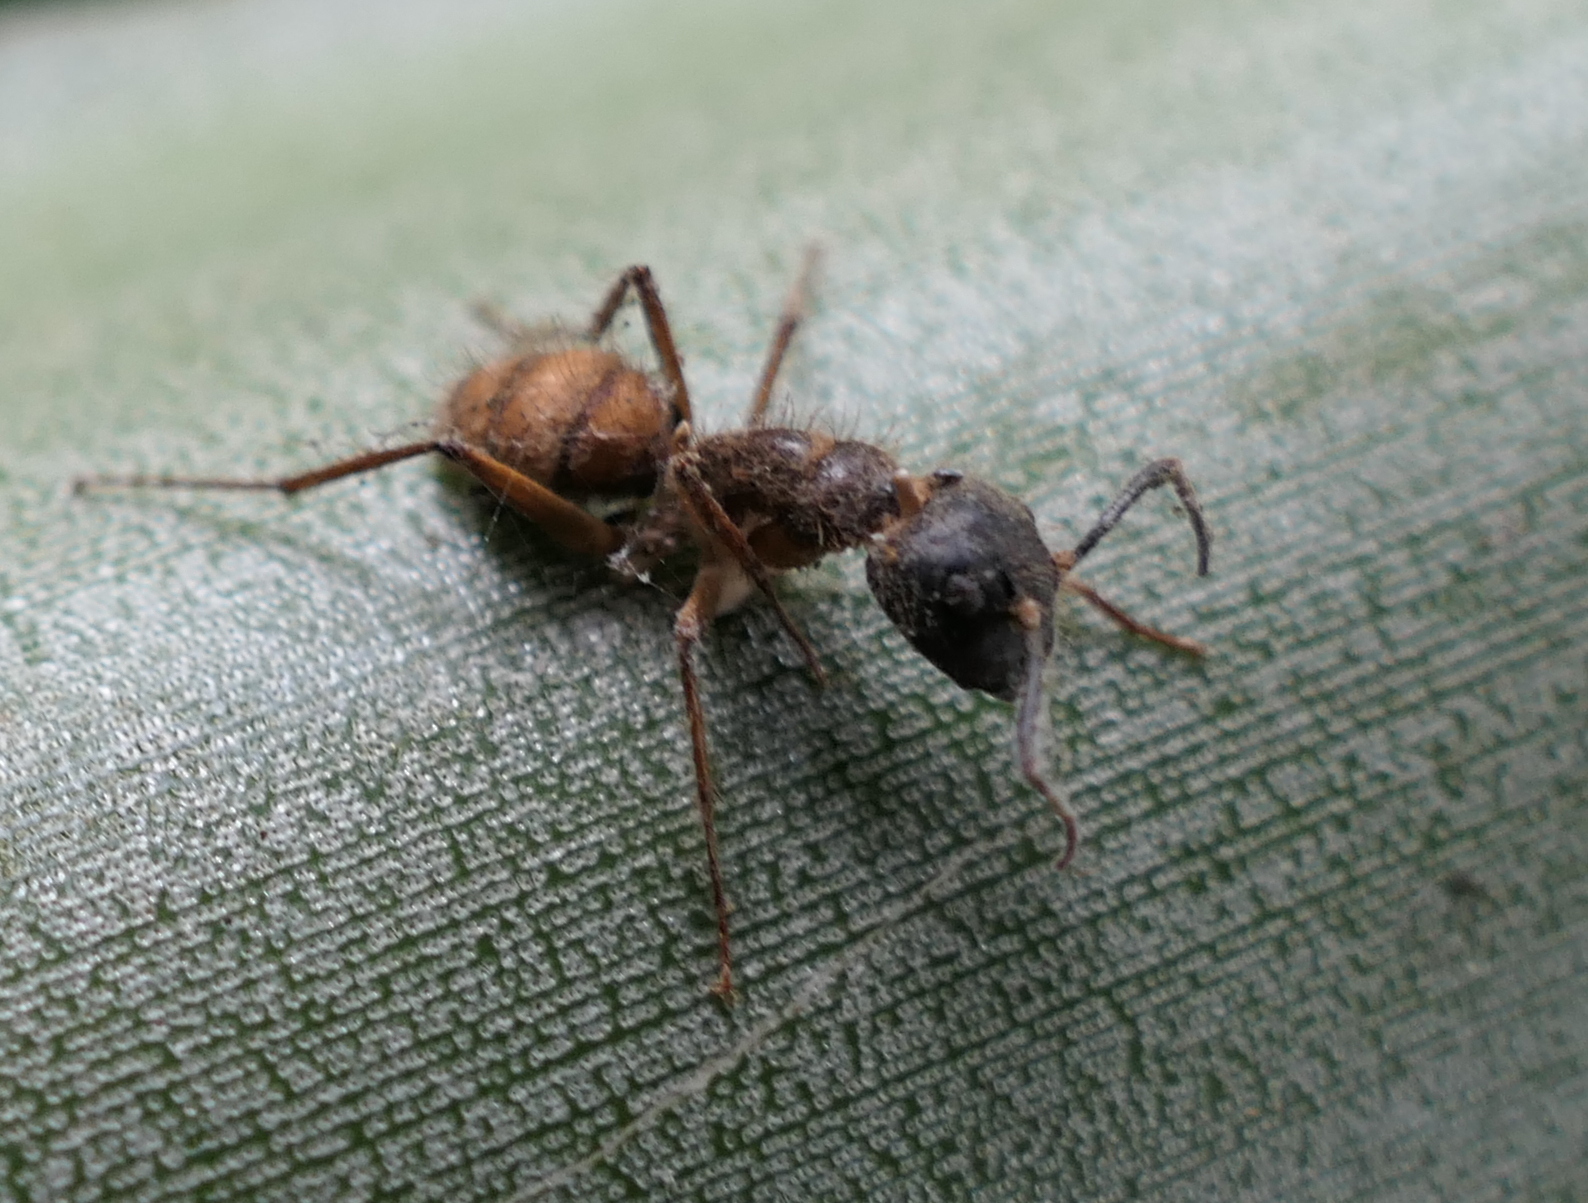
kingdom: Animalia
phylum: Arthropoda
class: Insecta
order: Hymenoptera
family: Formicidae
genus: Camponotus
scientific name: Camponotus atriceps
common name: Florida carpenter ant
